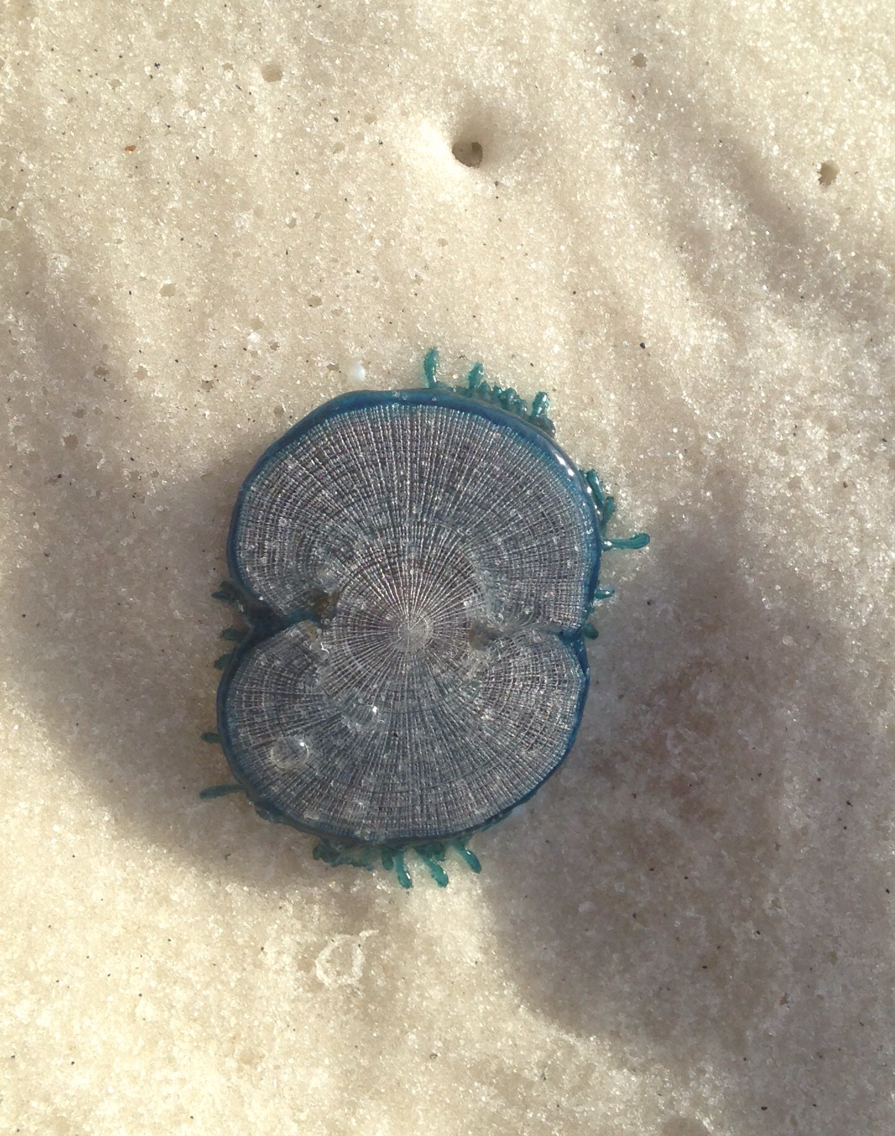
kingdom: Animalia
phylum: Cnidaria
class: Hydrozoa
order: Anthoathecata
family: Porpitidae
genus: Porpita
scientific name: Porpita porpita
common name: Blue button
